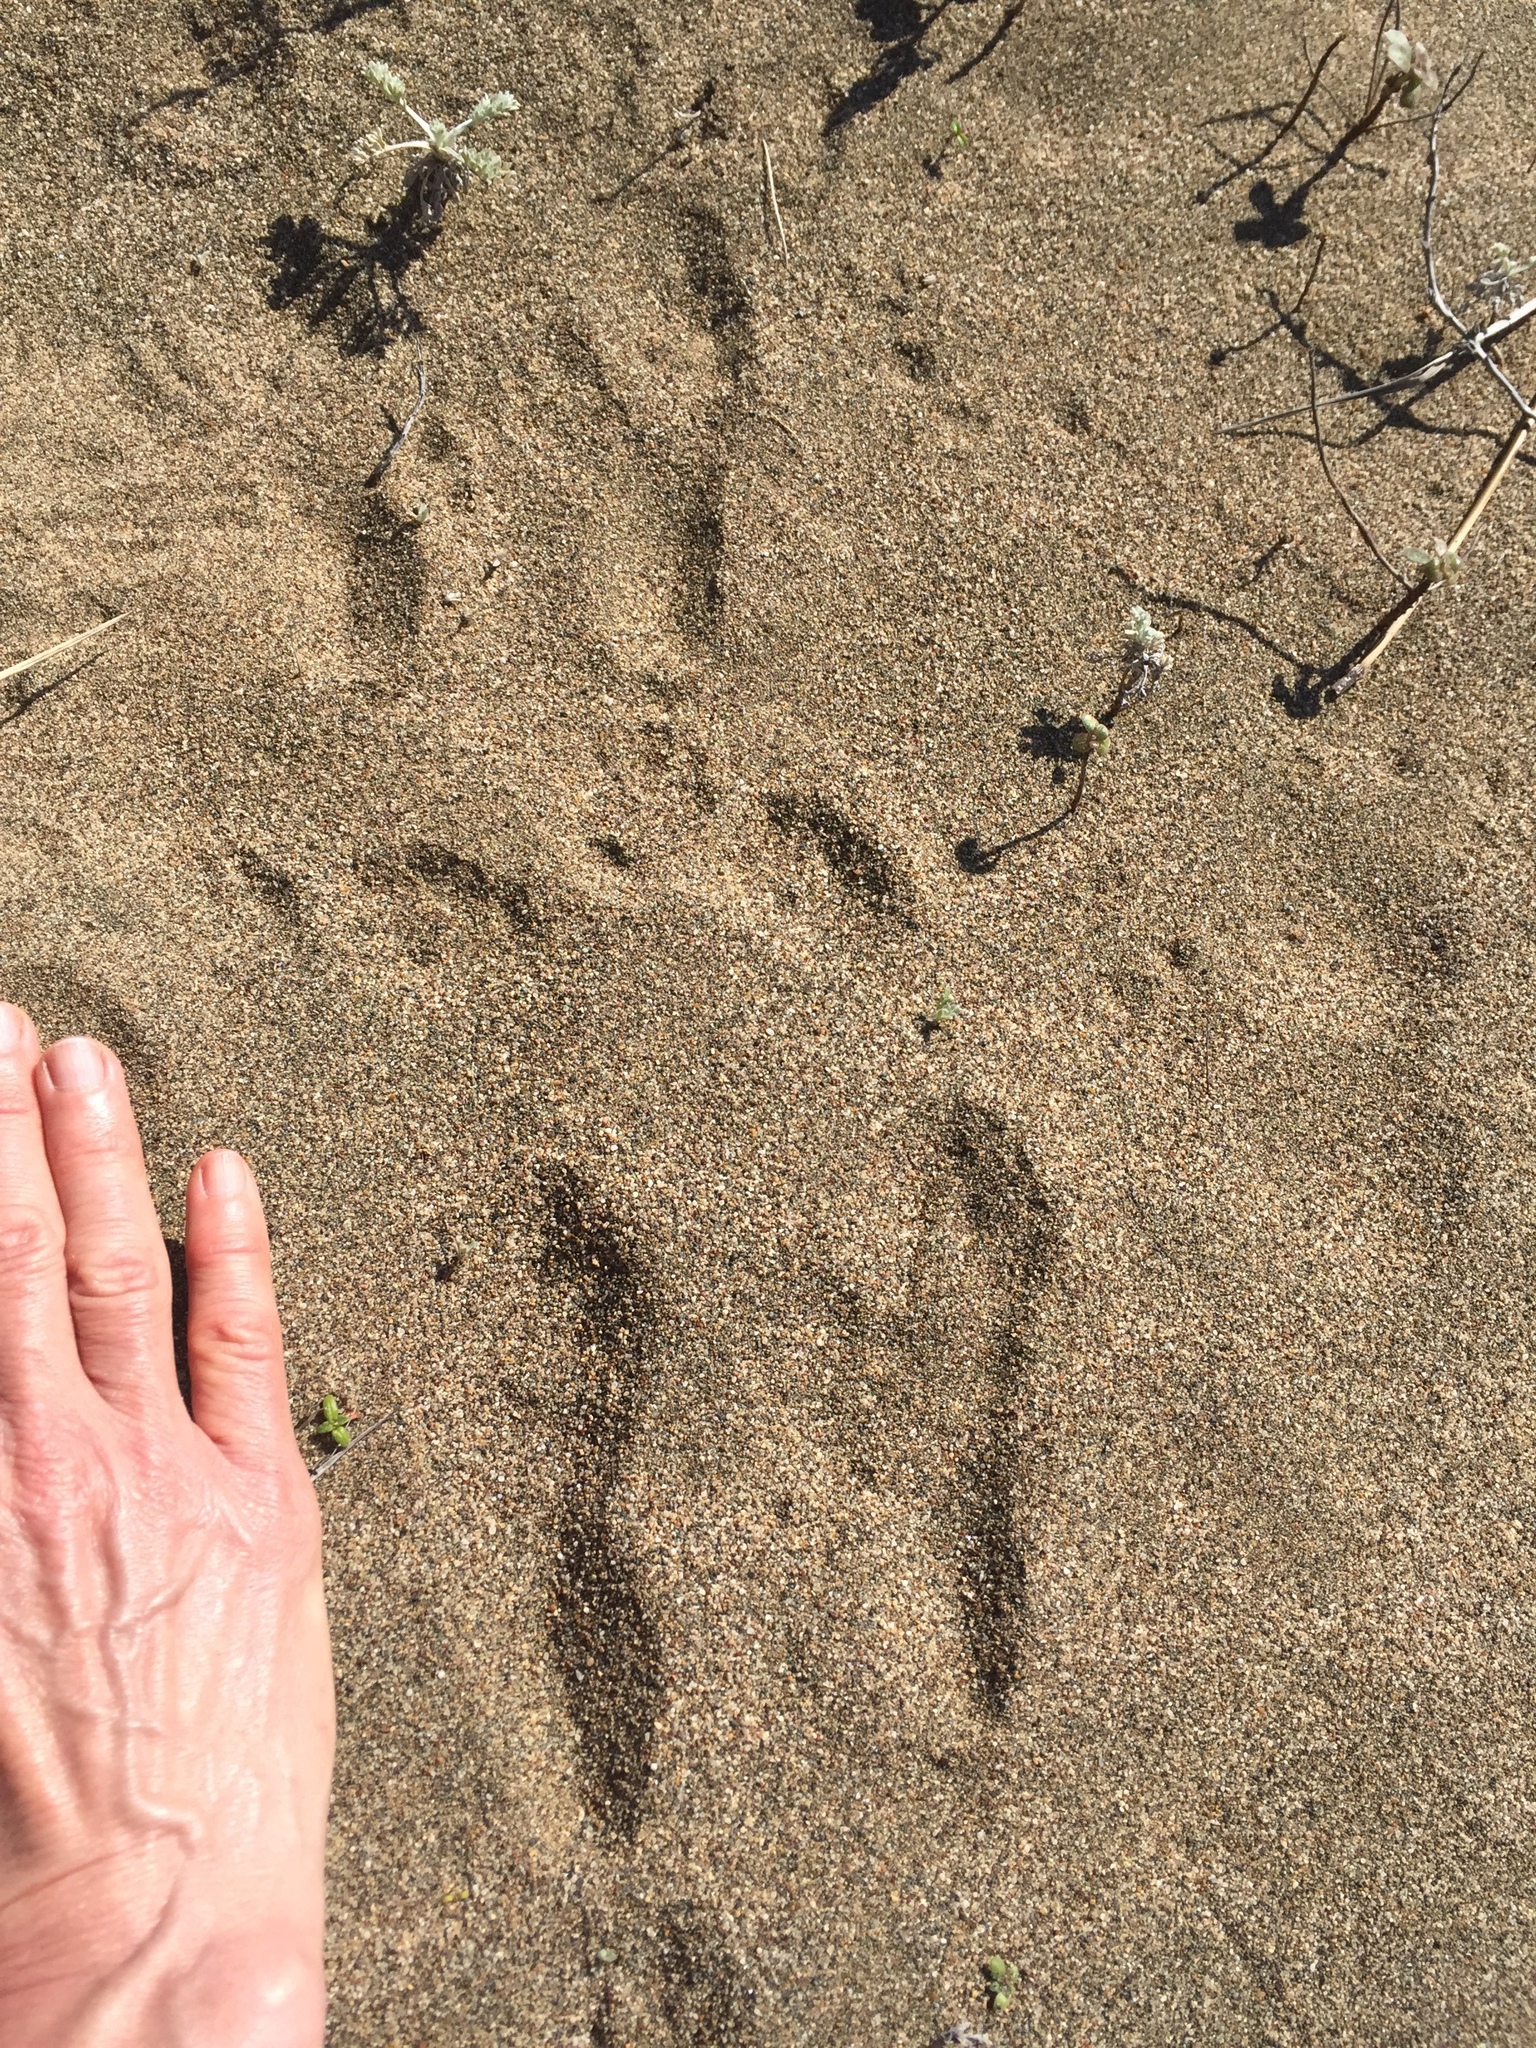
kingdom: Animalia
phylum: Chordata
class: Mammalia
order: Lagomorpha
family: Leporidae
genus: Lepus
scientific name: Lepus californicus
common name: Black-tailed jackrabbit
